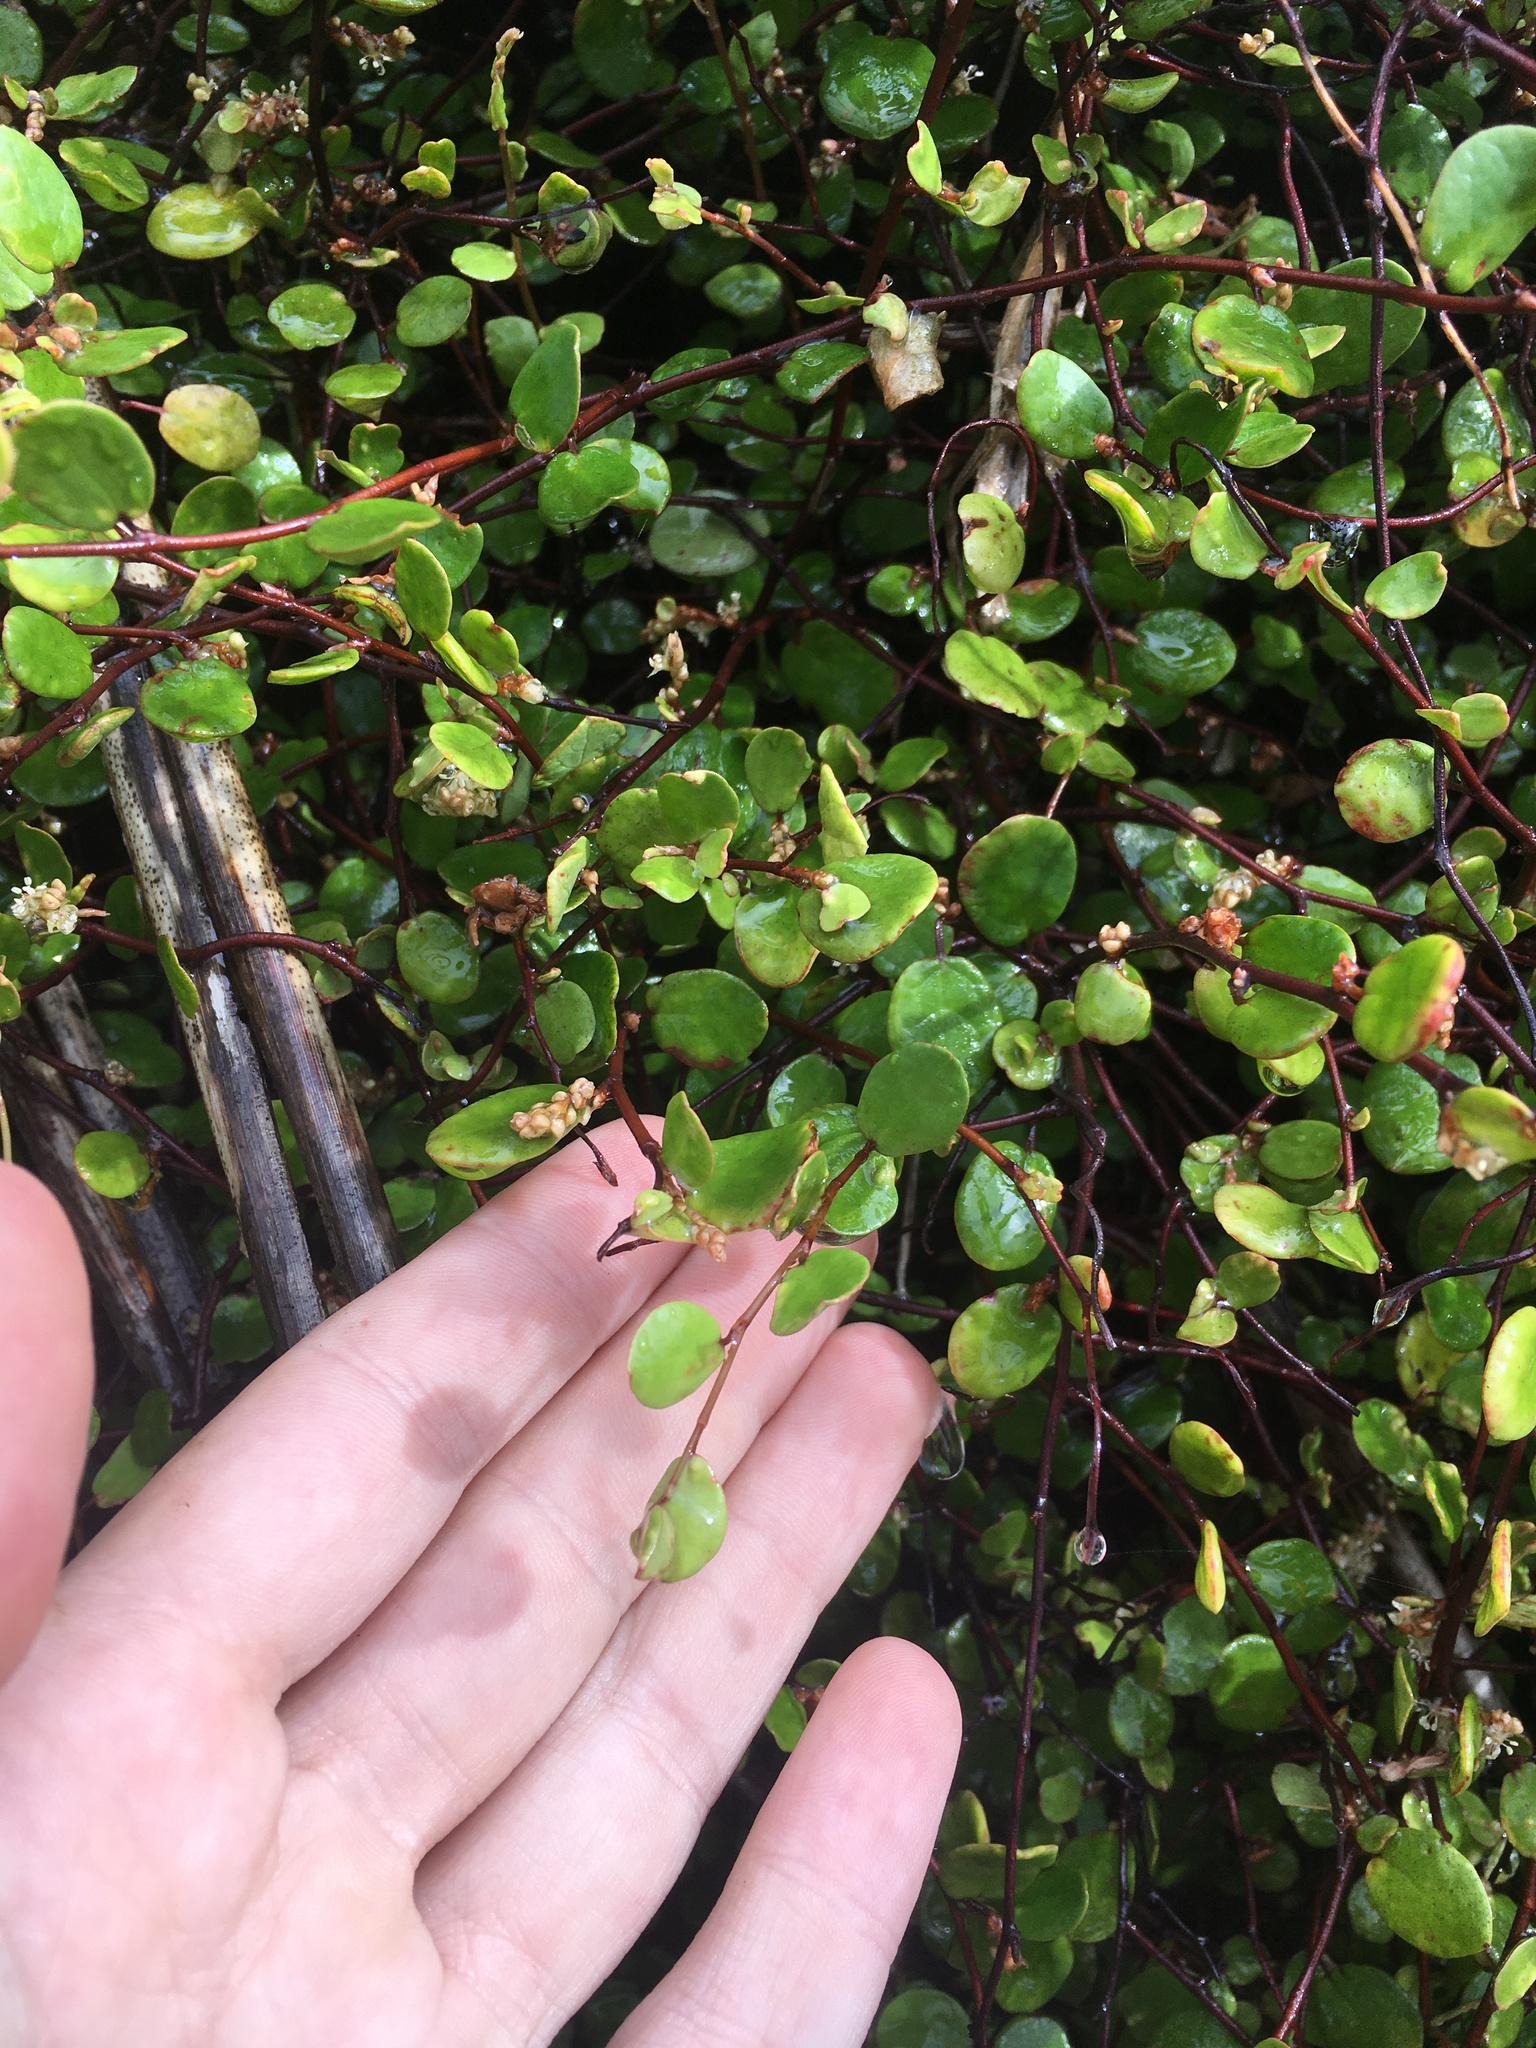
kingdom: Plantae
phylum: Tracheophyta
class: Magnoliopsida
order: Caryophyllales
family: Polygonaceae
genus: Muehlenbeckia
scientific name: Muehlenbeckia complexa
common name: Wireplant
